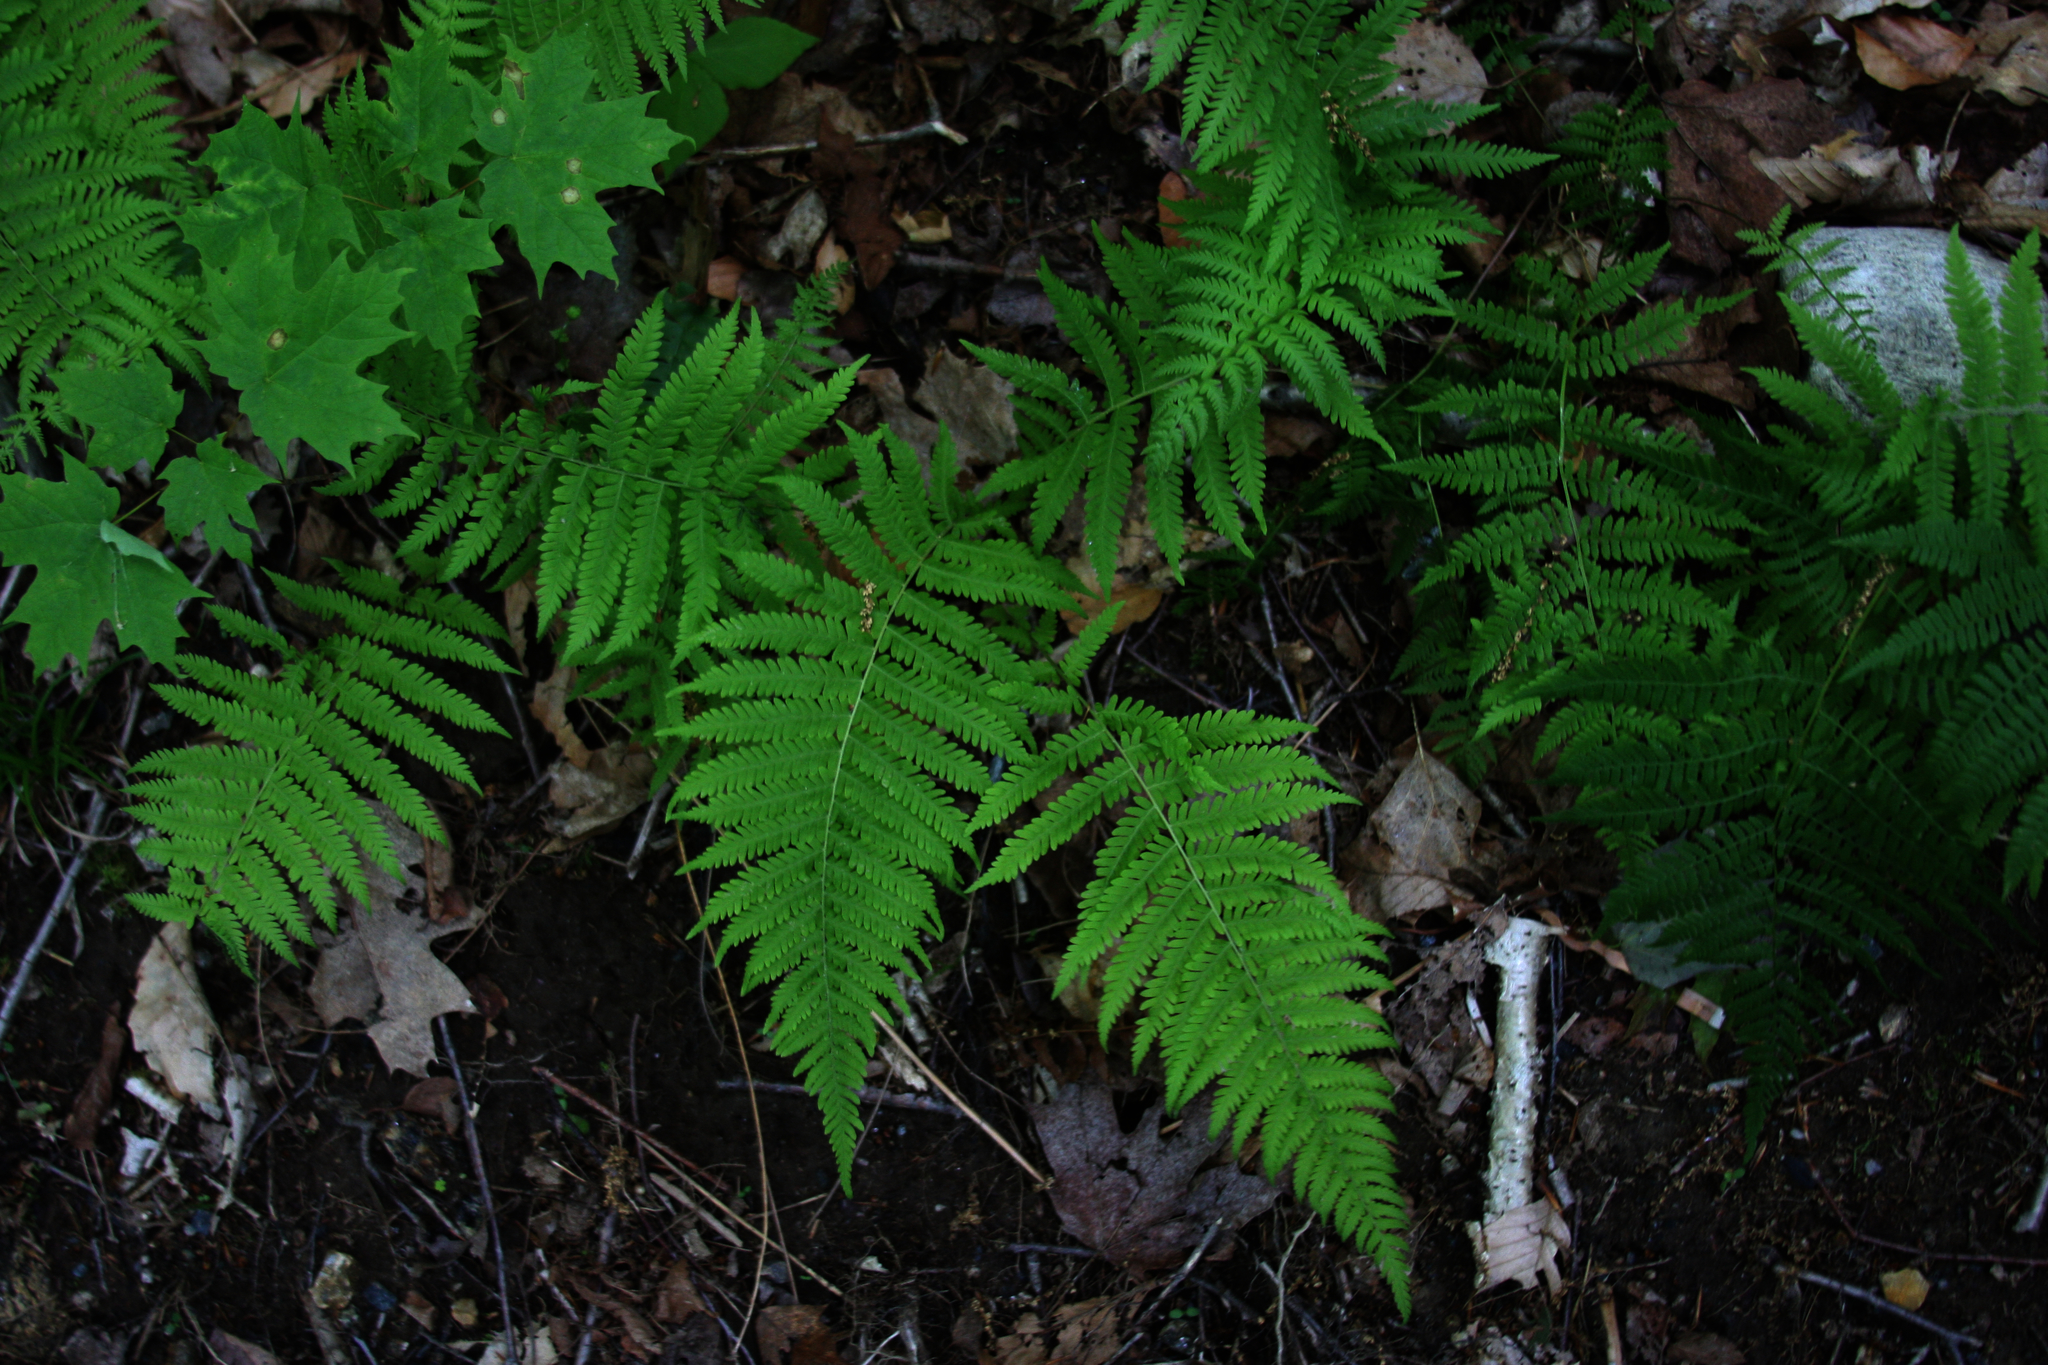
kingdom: Plantae
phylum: Tracheophyta
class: Magnoliopsida
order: Sapindales
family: Sapindaceae
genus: Acer
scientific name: Acer saccharum
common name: Sugar maple
